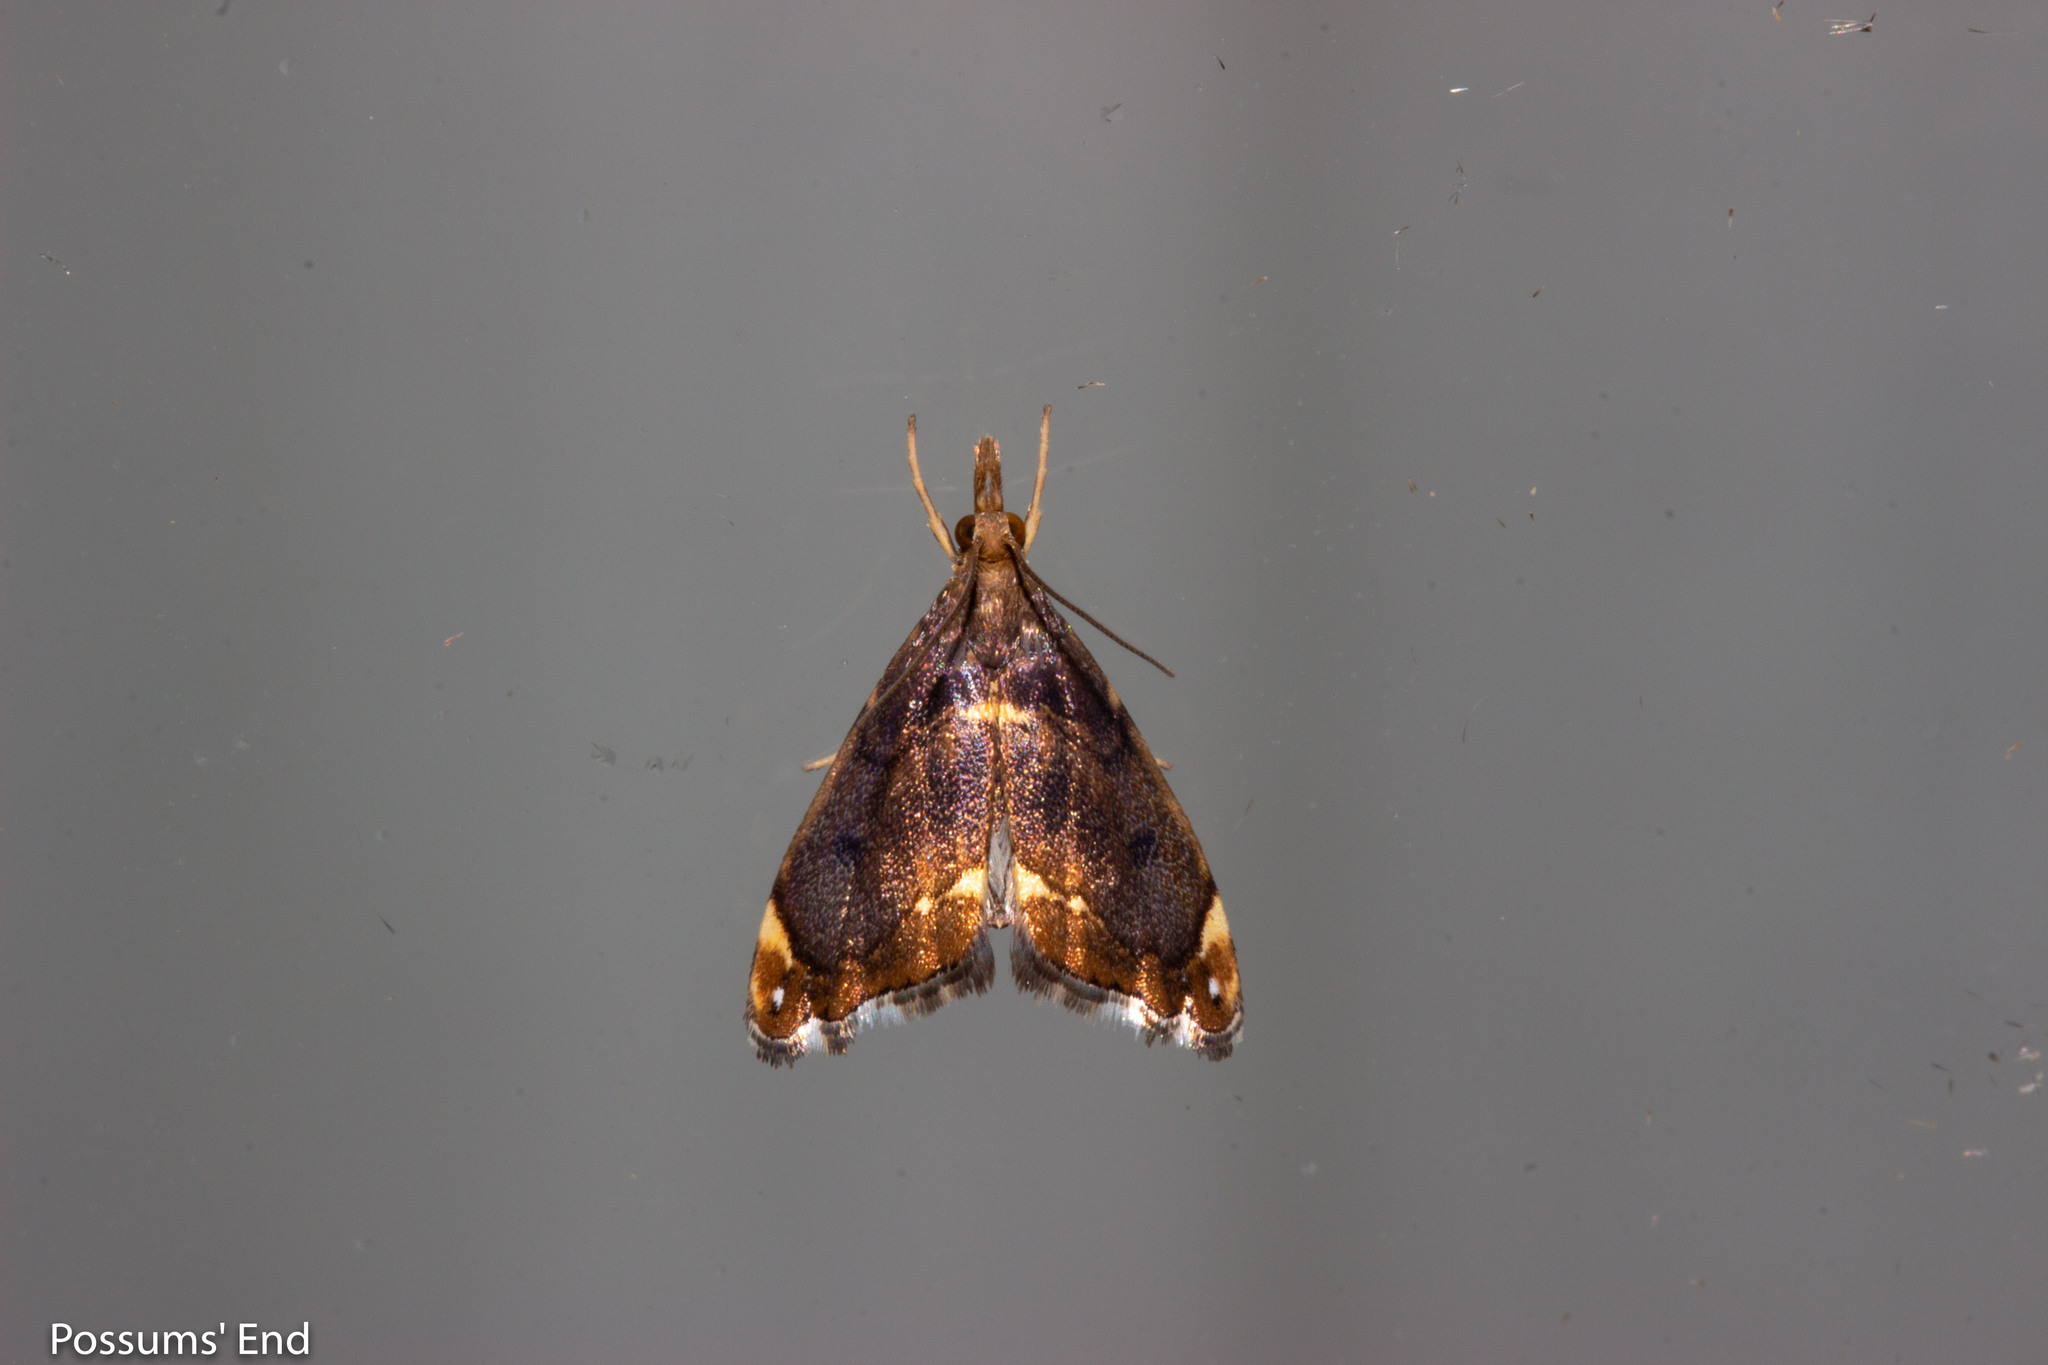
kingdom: Animalia
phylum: Arthropoda
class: Insecta
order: Lepidoptera
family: Crambidae
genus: Glaucocharis
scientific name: Glaucocharis pyrsophanes
